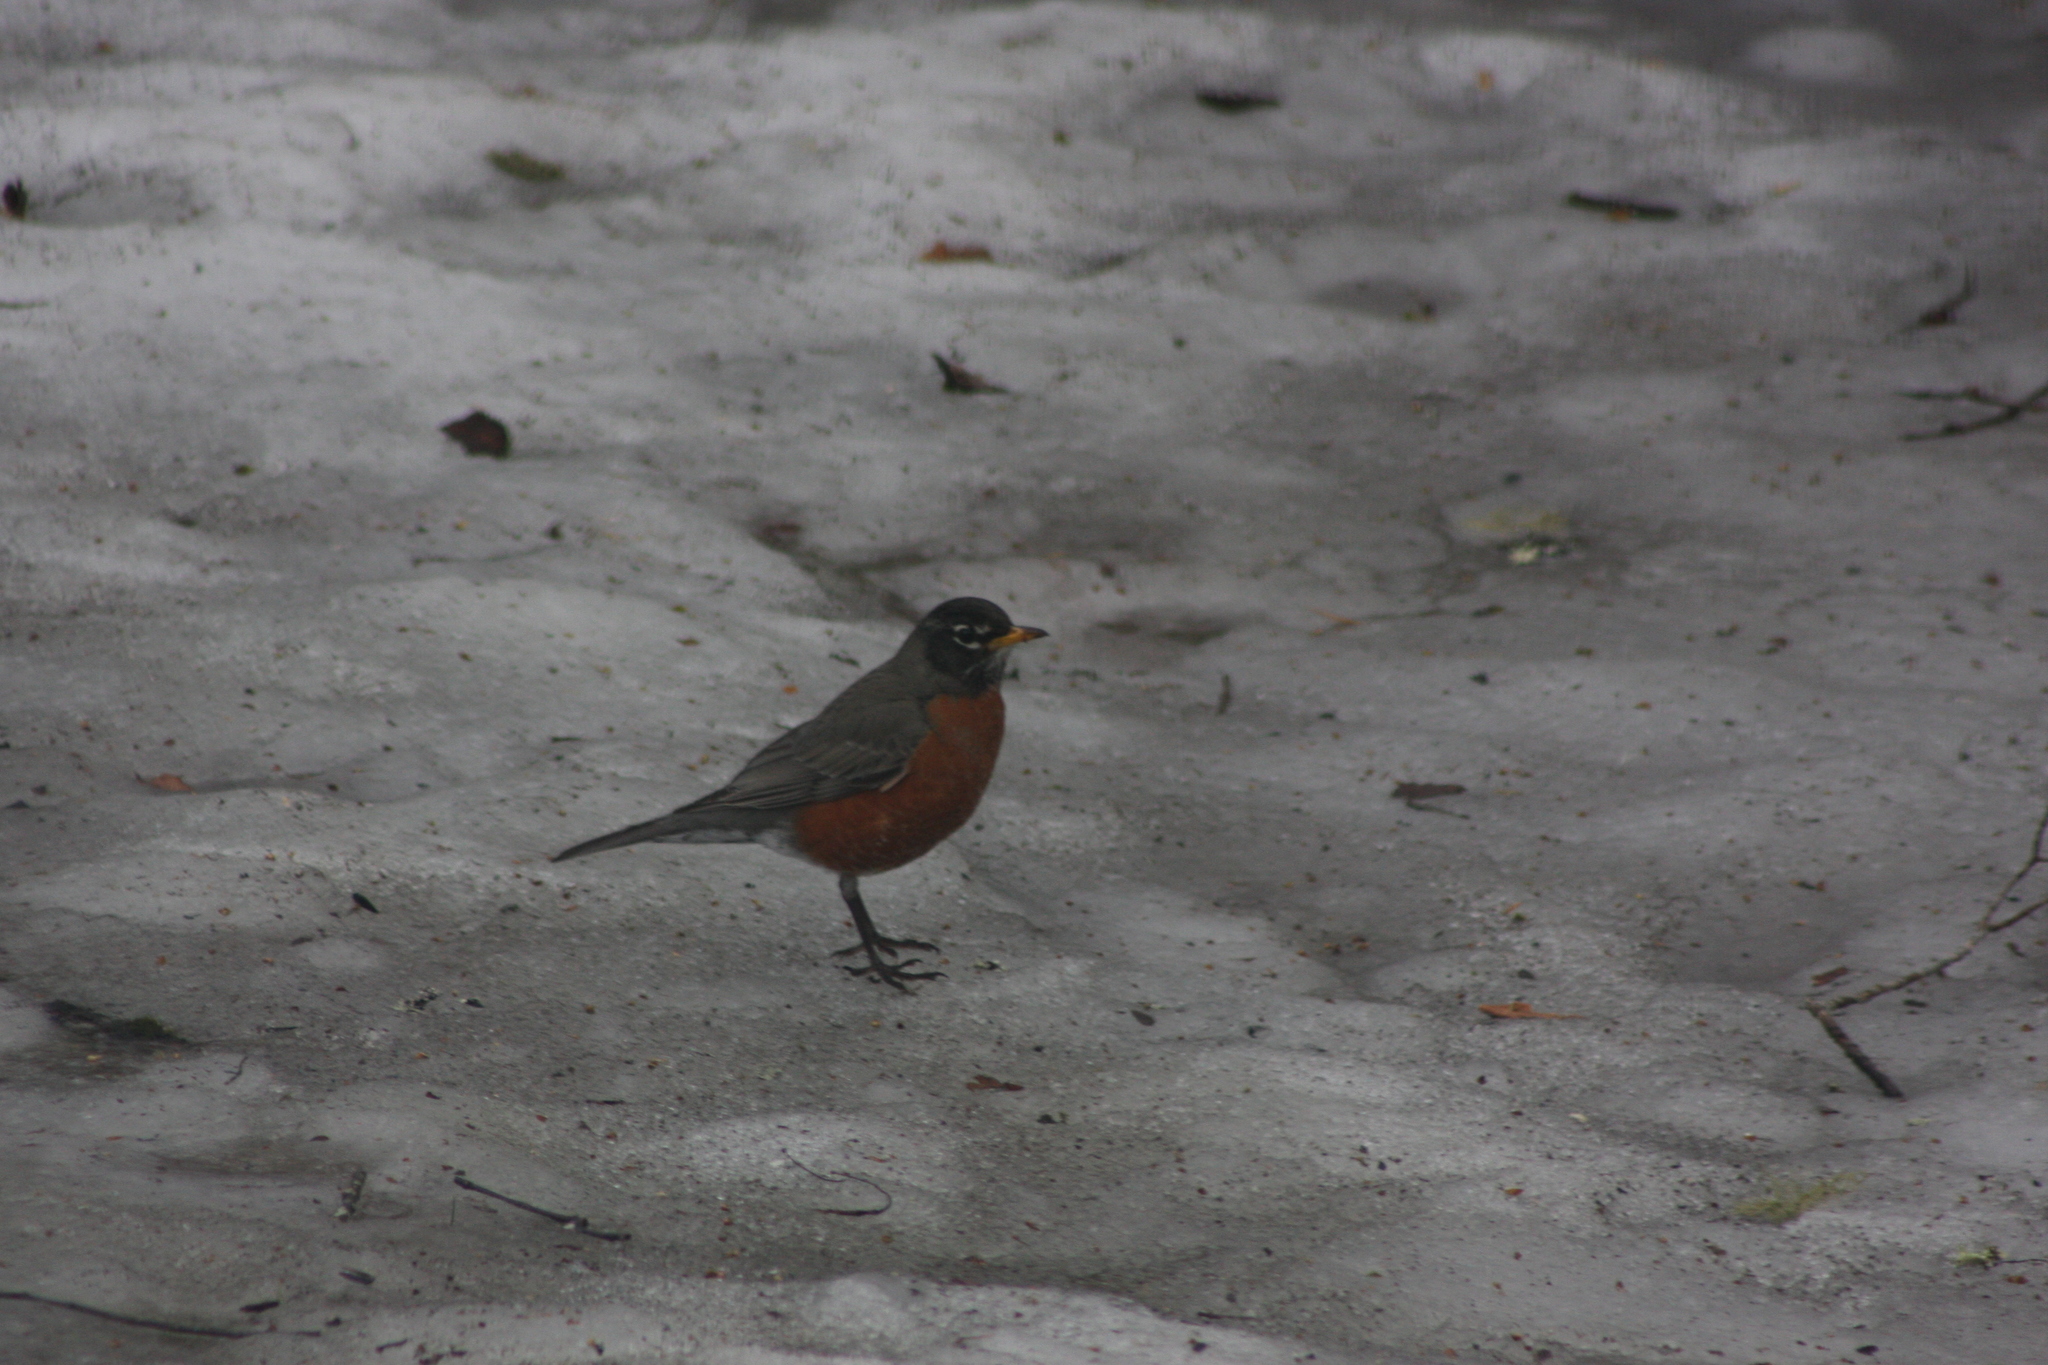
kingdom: Animalia
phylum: Chordata
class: Aves
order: Passeriformes
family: Turdidae
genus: Turdus
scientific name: Turdus migratorius
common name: American robin
